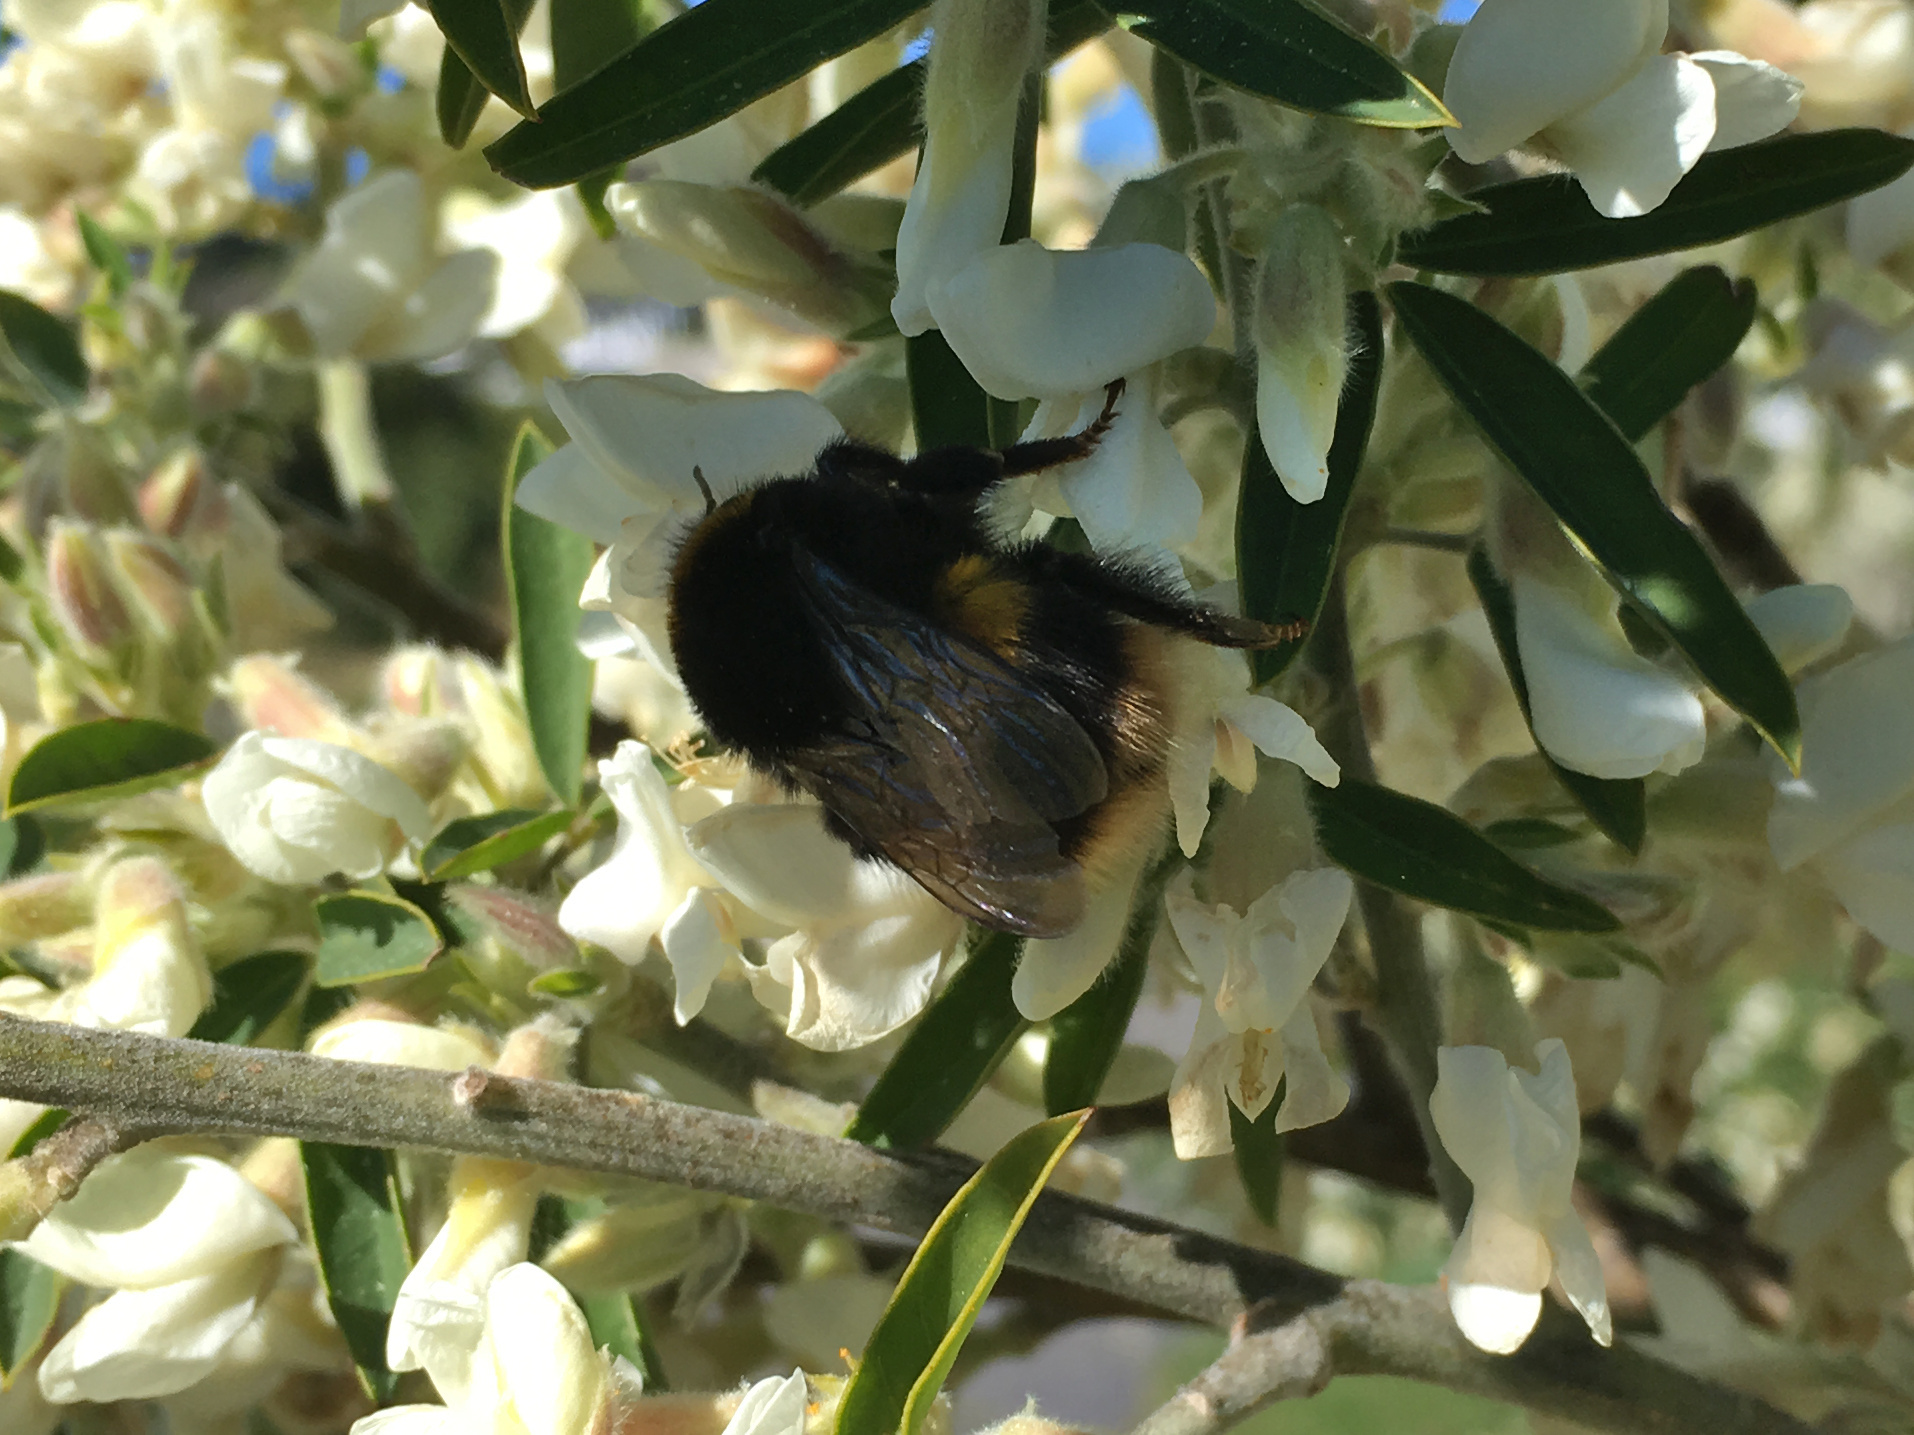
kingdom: Animalia
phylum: Arthropoda
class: Insecta
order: Hymenoptera
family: Apidae
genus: Bombus
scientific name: Bombus terrestris
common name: Buff-tailed bumblebee
